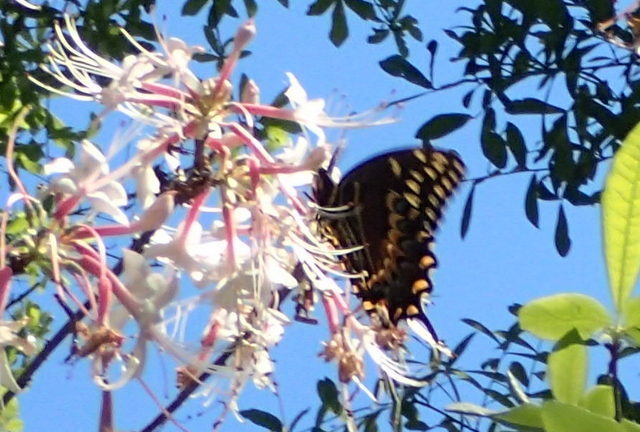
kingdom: Animalia
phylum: Arthropoda
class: Insecta
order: Lepidoptera
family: Papilionidae
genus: Papilio
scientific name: Papilio palamedes
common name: Palamedes swallowtail
